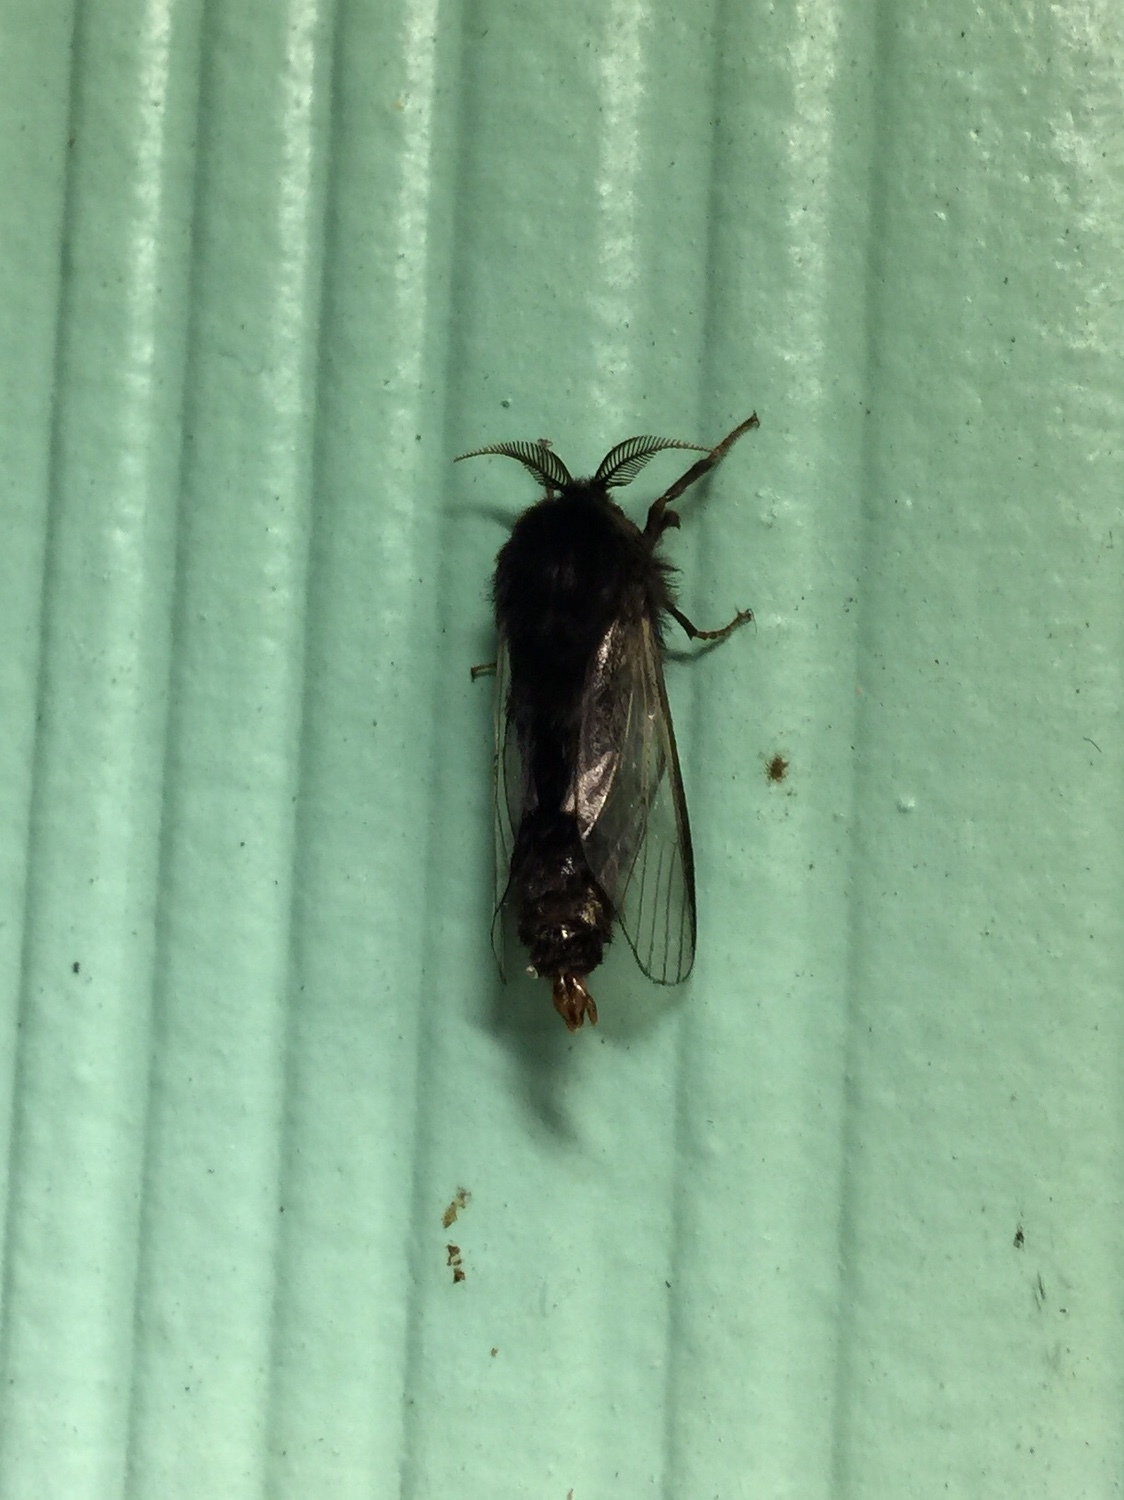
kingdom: Animalia
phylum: Arthropoda
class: Insecta
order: Lepidoptera
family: Psychidae
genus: Thyridopteryx
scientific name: Thyridopteryx ephemeraeformis
